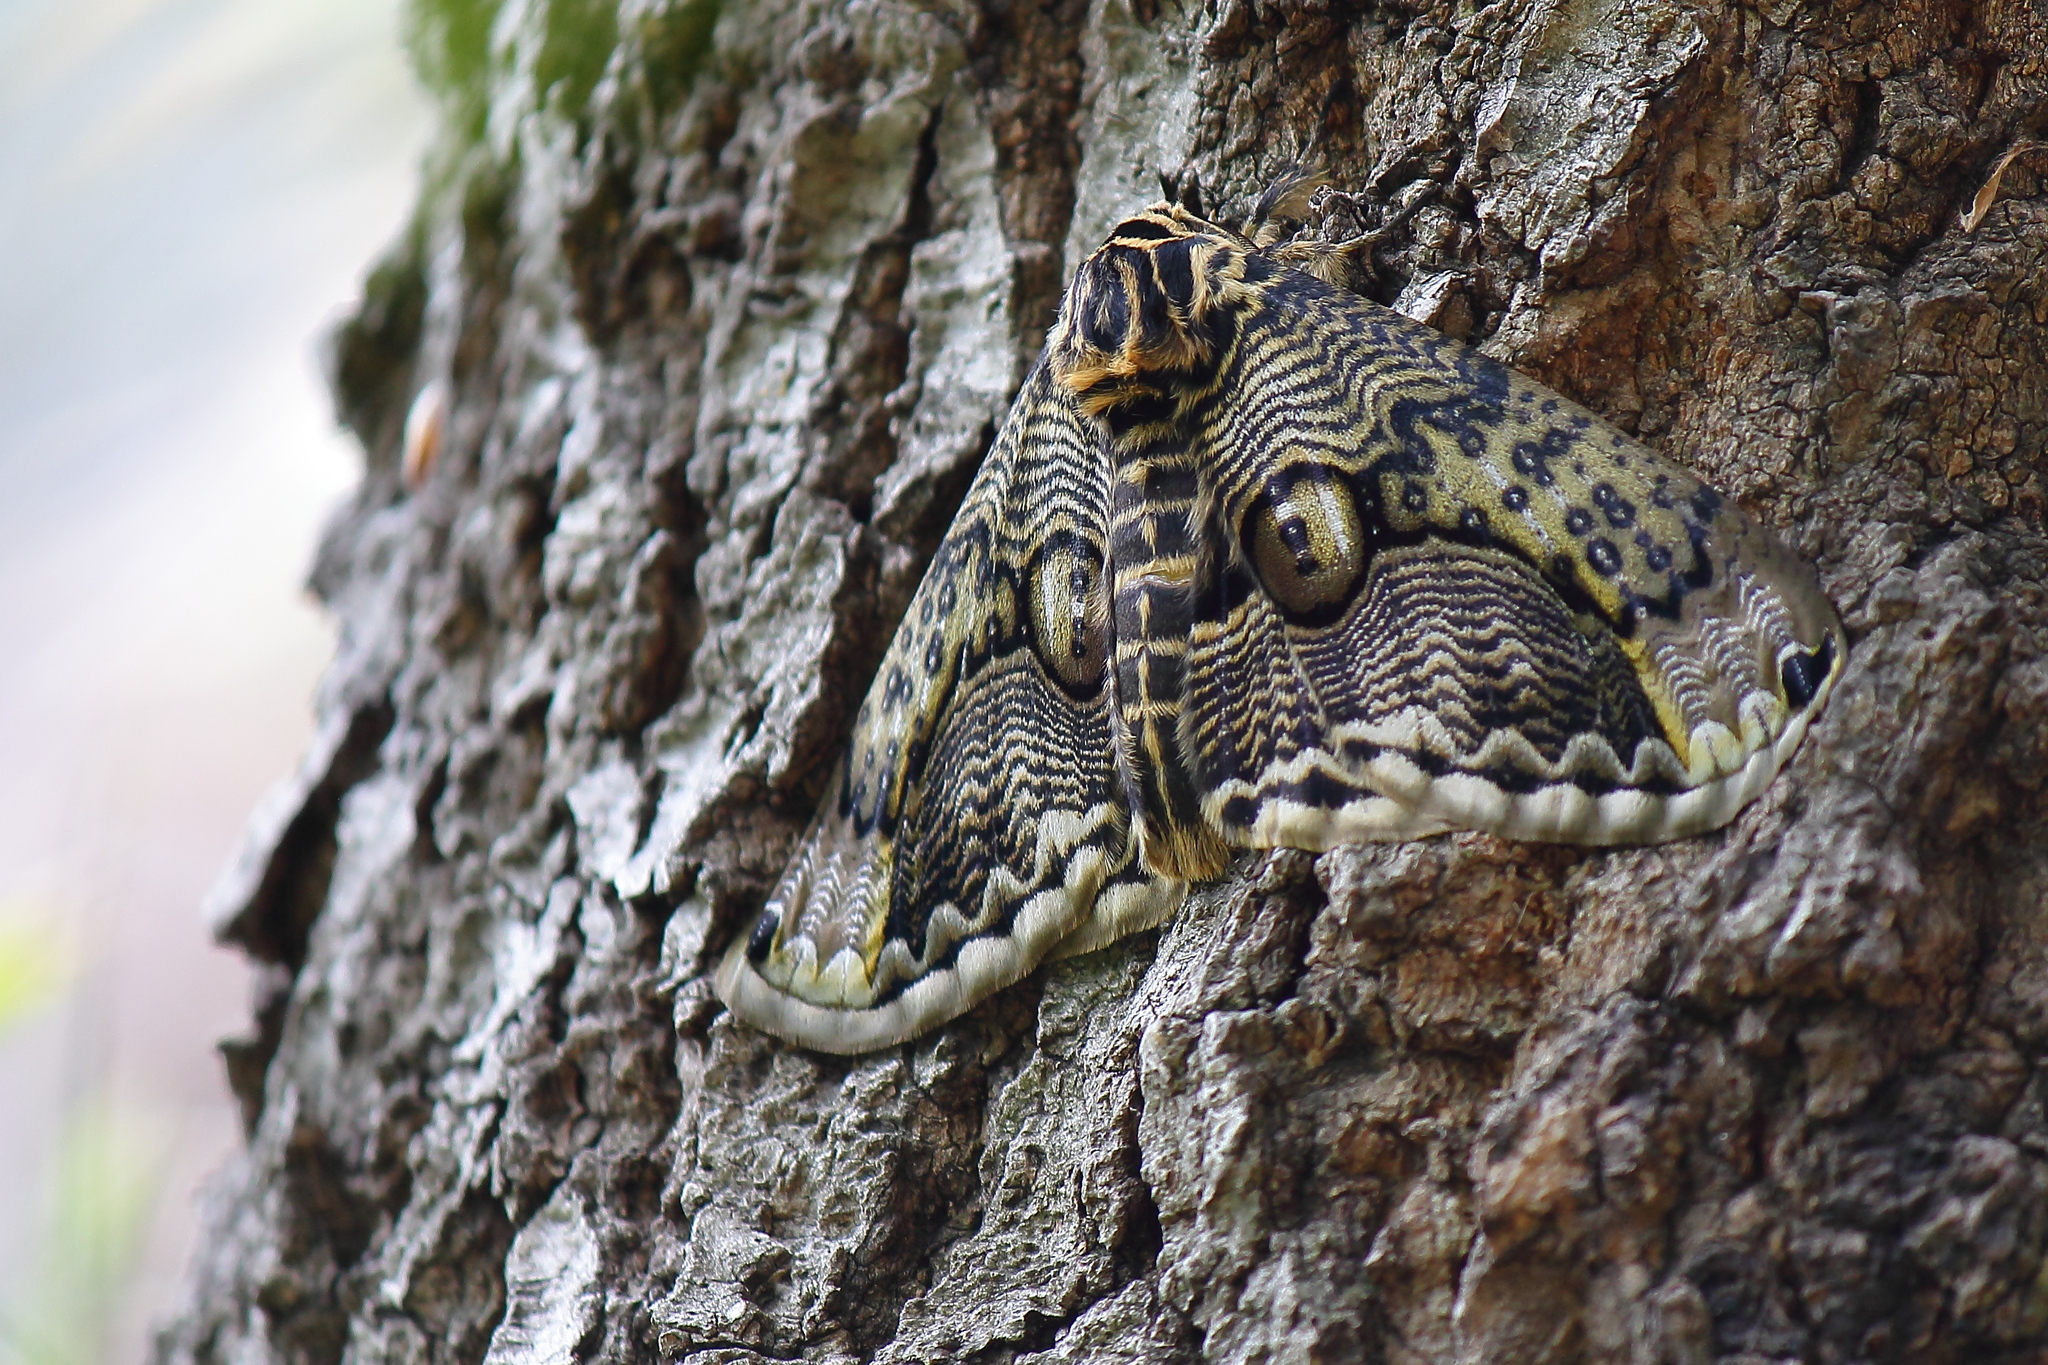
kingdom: Animalia
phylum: Arthropoda
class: Insecta
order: Lepidoptera
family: Brahmaeidae
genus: Brahmaea
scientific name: Brahmaea japonica
